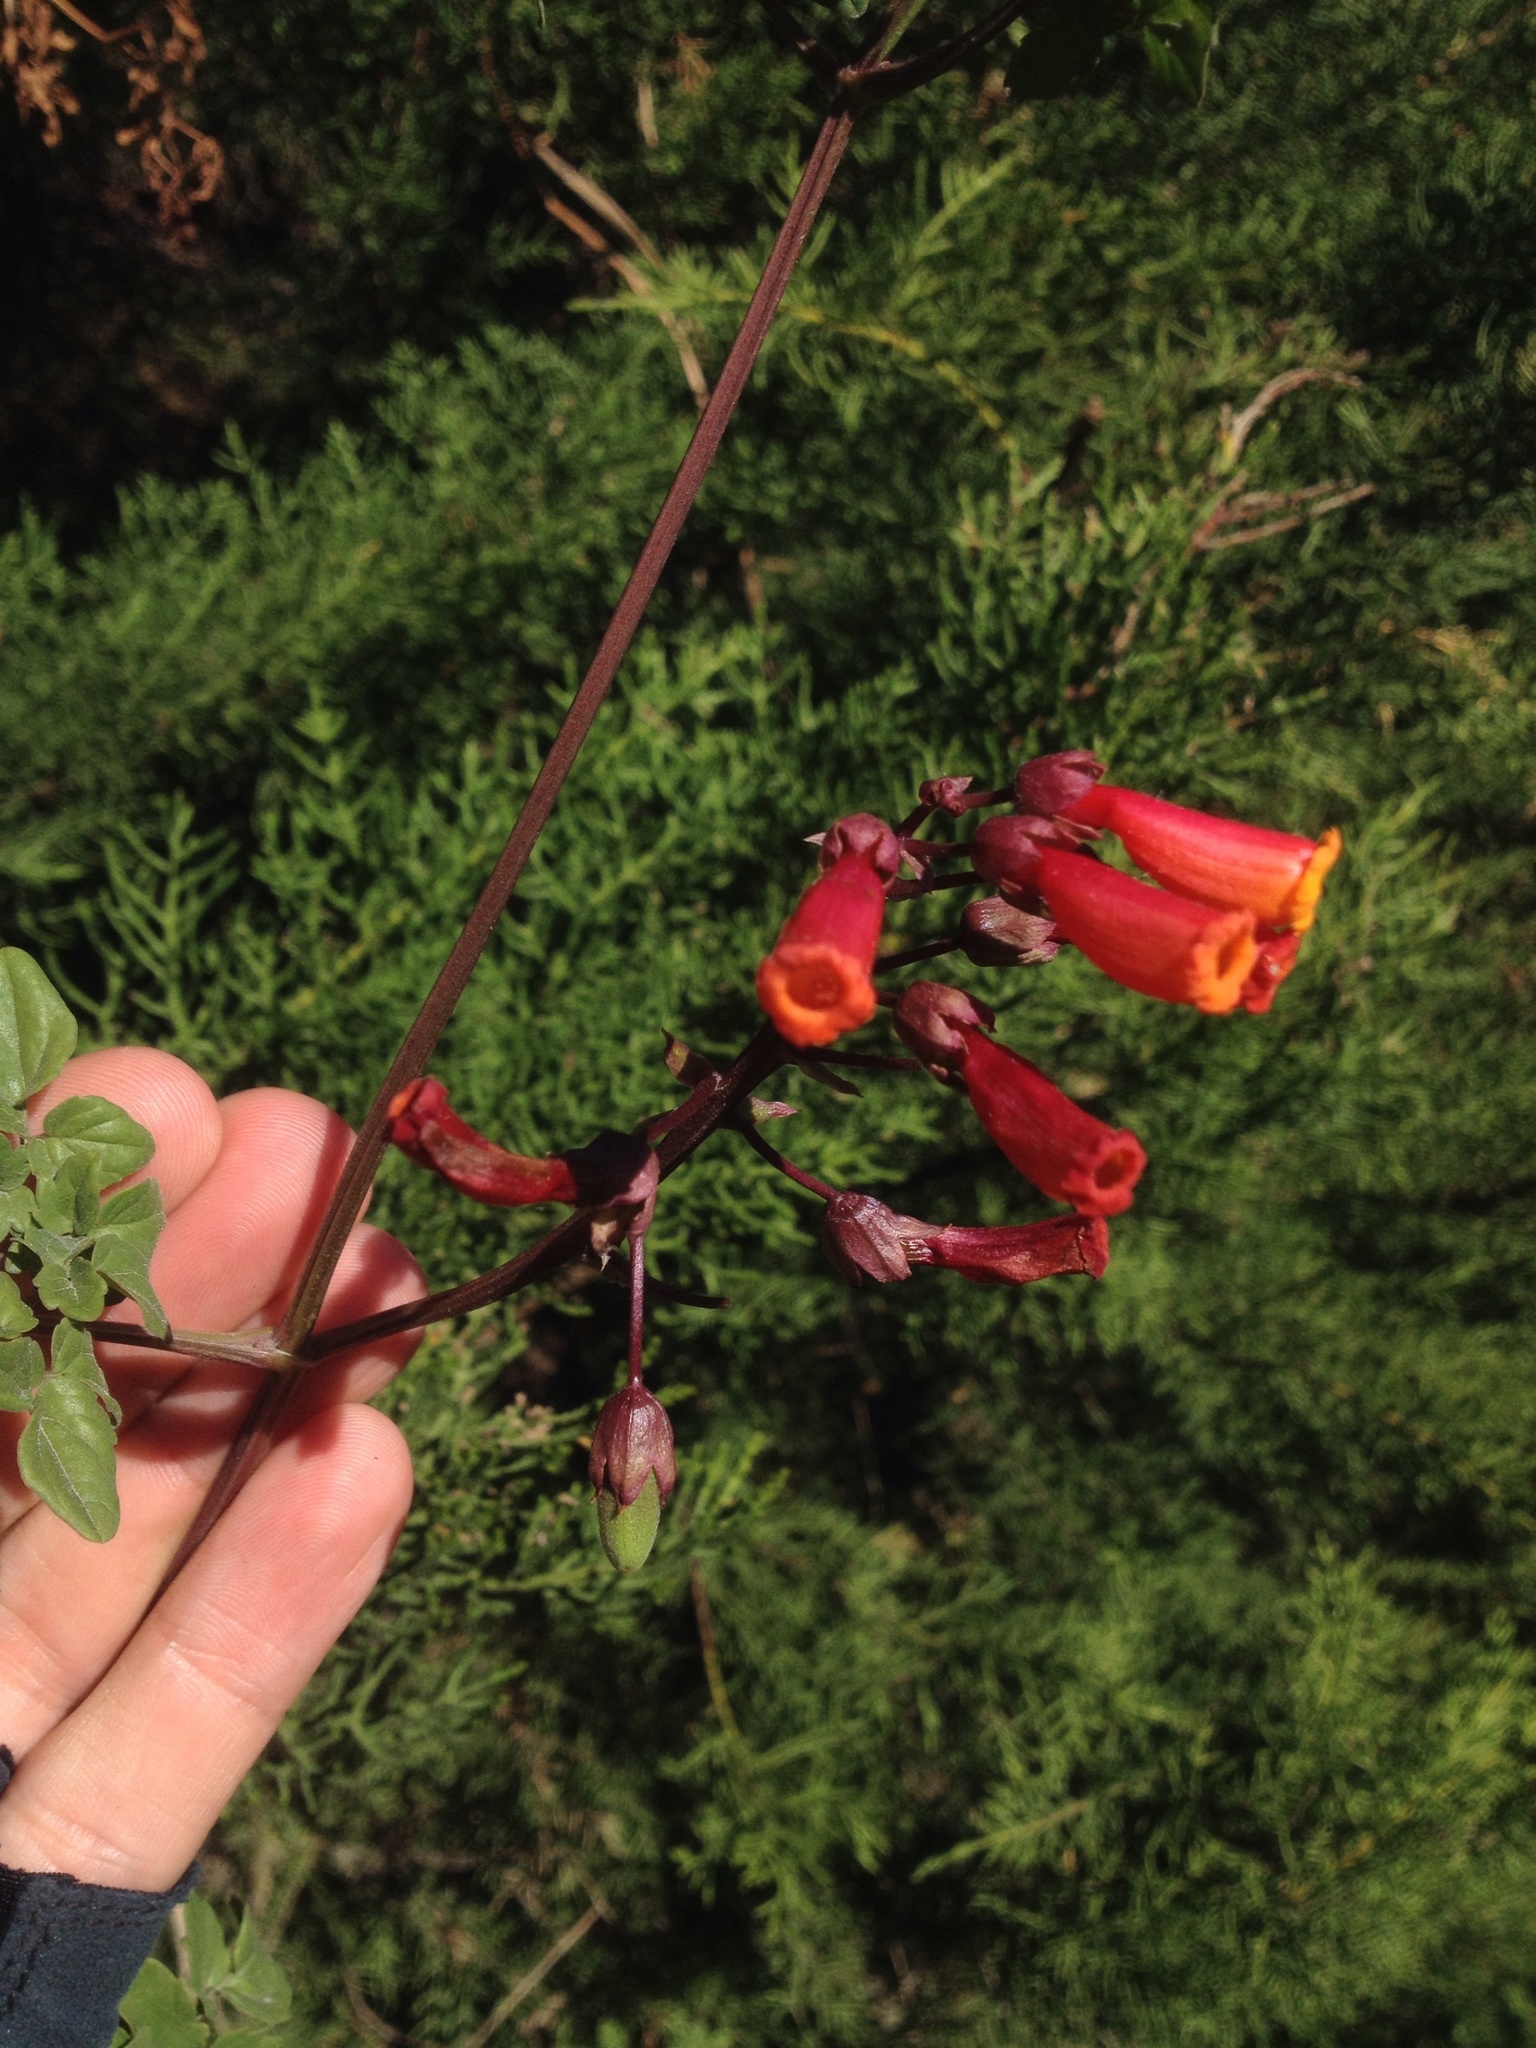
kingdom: Plantae
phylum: Tracheophyta
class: Magnoliopsida
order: Lamiales
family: Bignoniaceae
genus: Eccremocarpus
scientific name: Eccremocarpus scaber
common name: Chilean glory-flower
